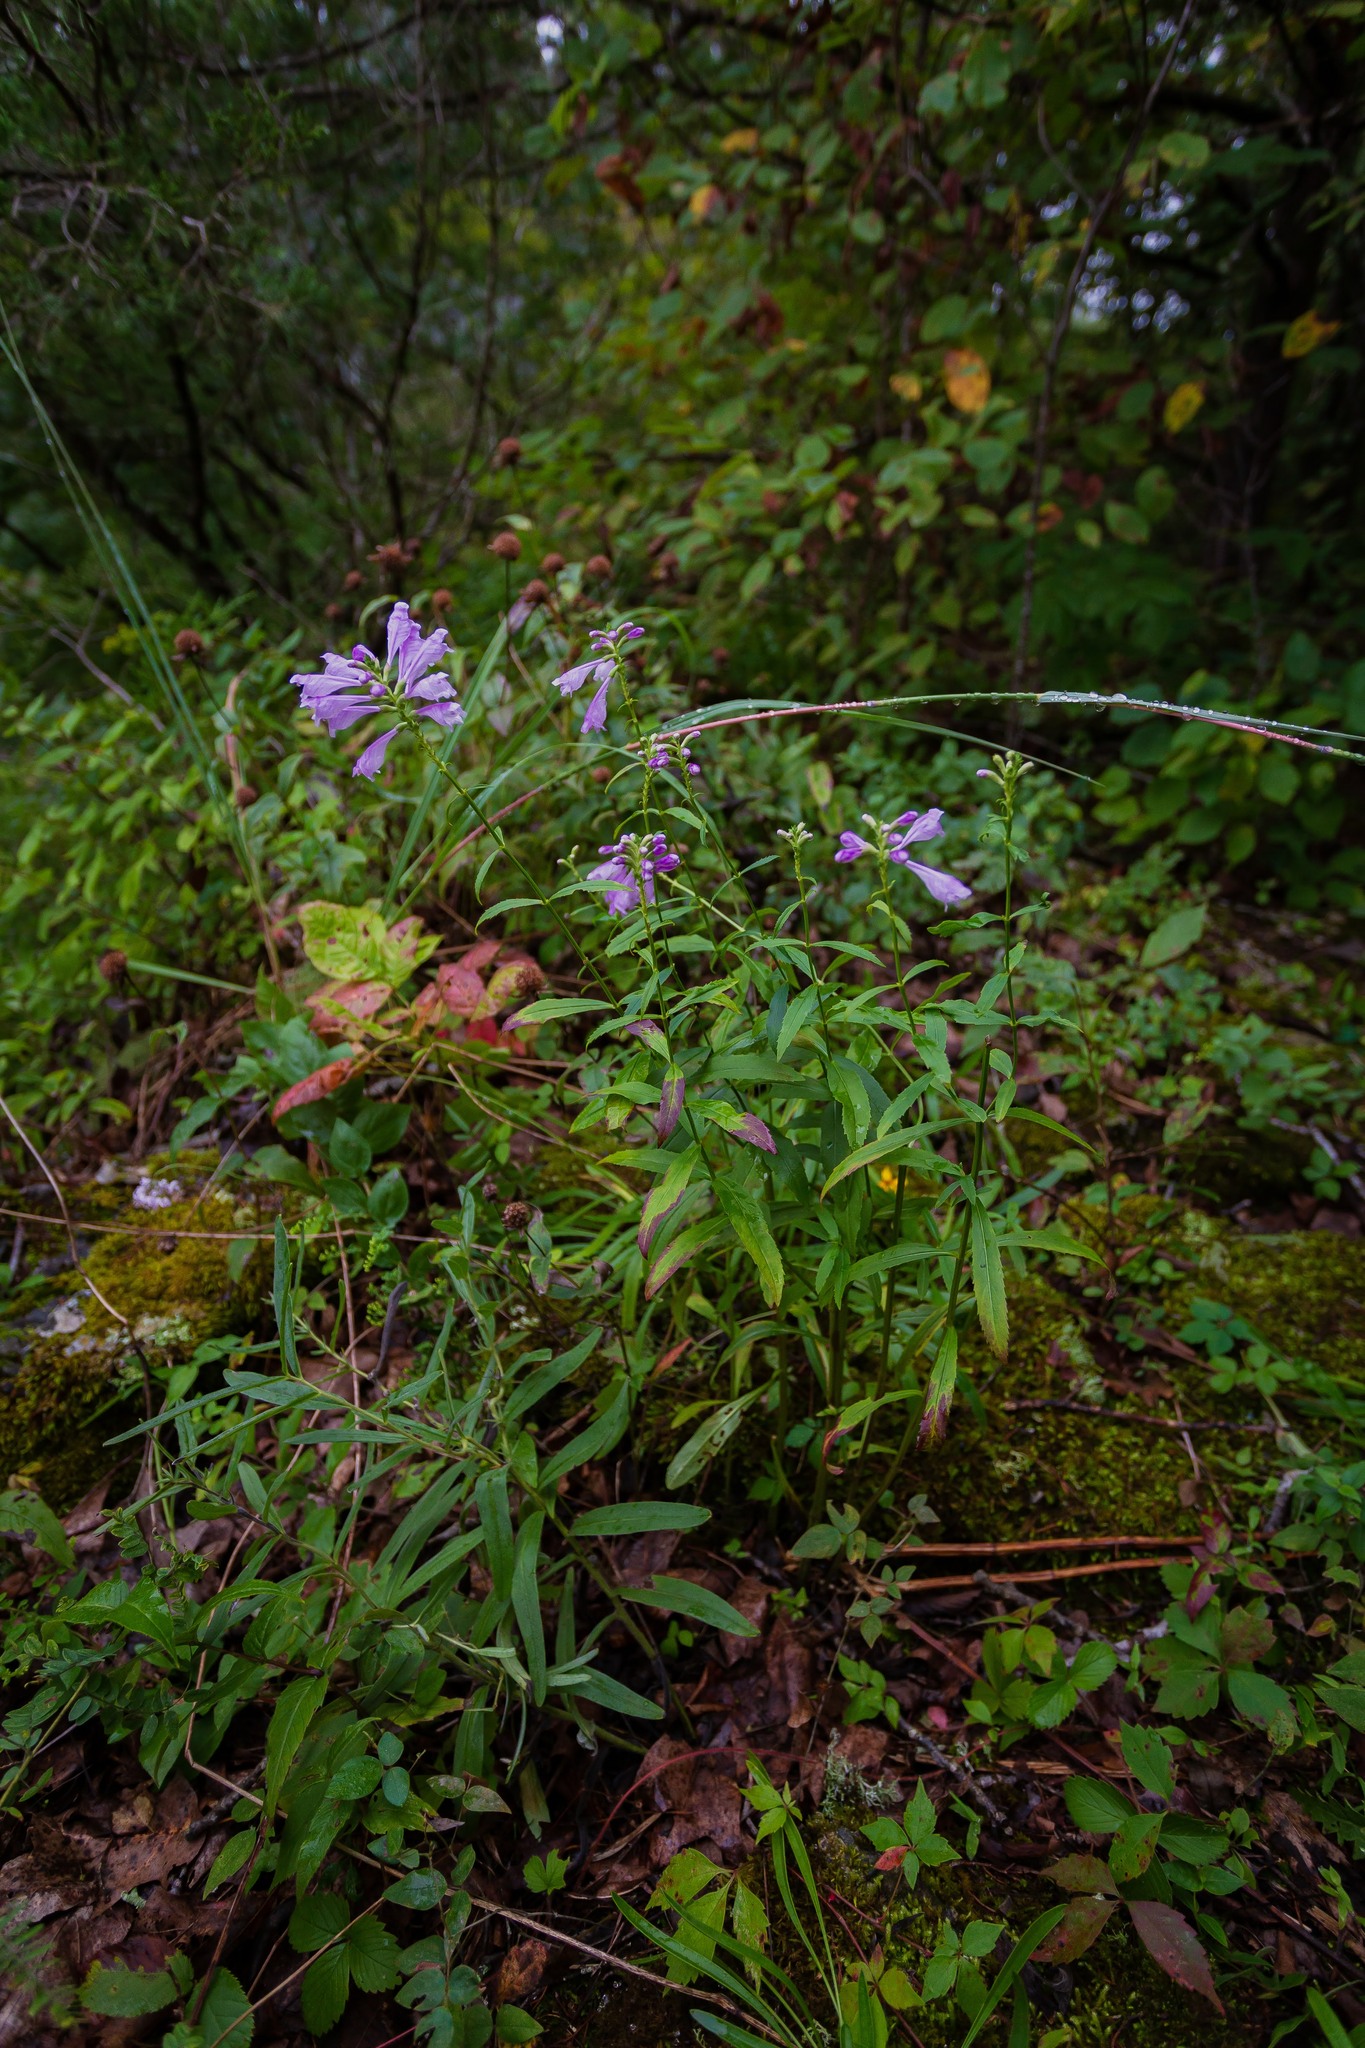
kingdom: Plantae
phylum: Tracheophyta
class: Magnoliopsida
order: Lamiales
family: Lamiaceae
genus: Physostegia
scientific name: Physostegia virginiana
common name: Obedient-plant
